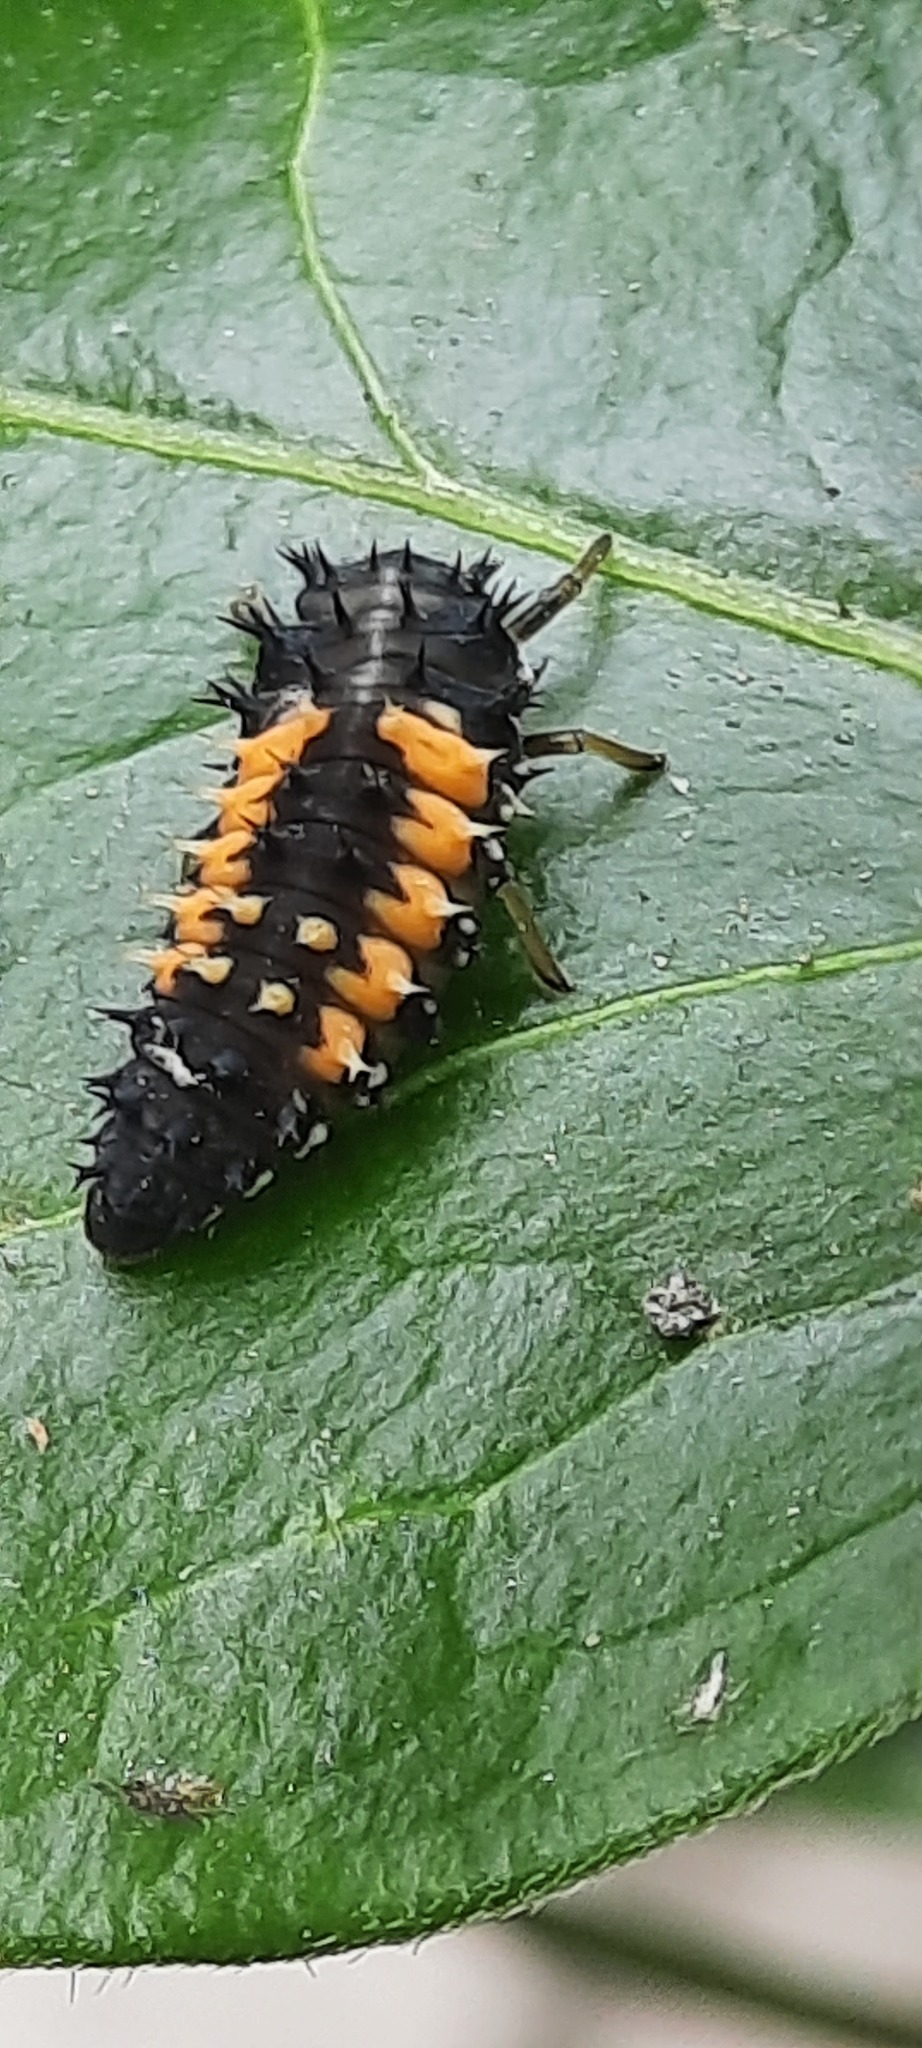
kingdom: Animalia
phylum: Arthropoda
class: Insecta
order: Coleoptera
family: Coccinellidae
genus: Harmonia
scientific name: Harmonia axyridis
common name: Harlequin ladybird
